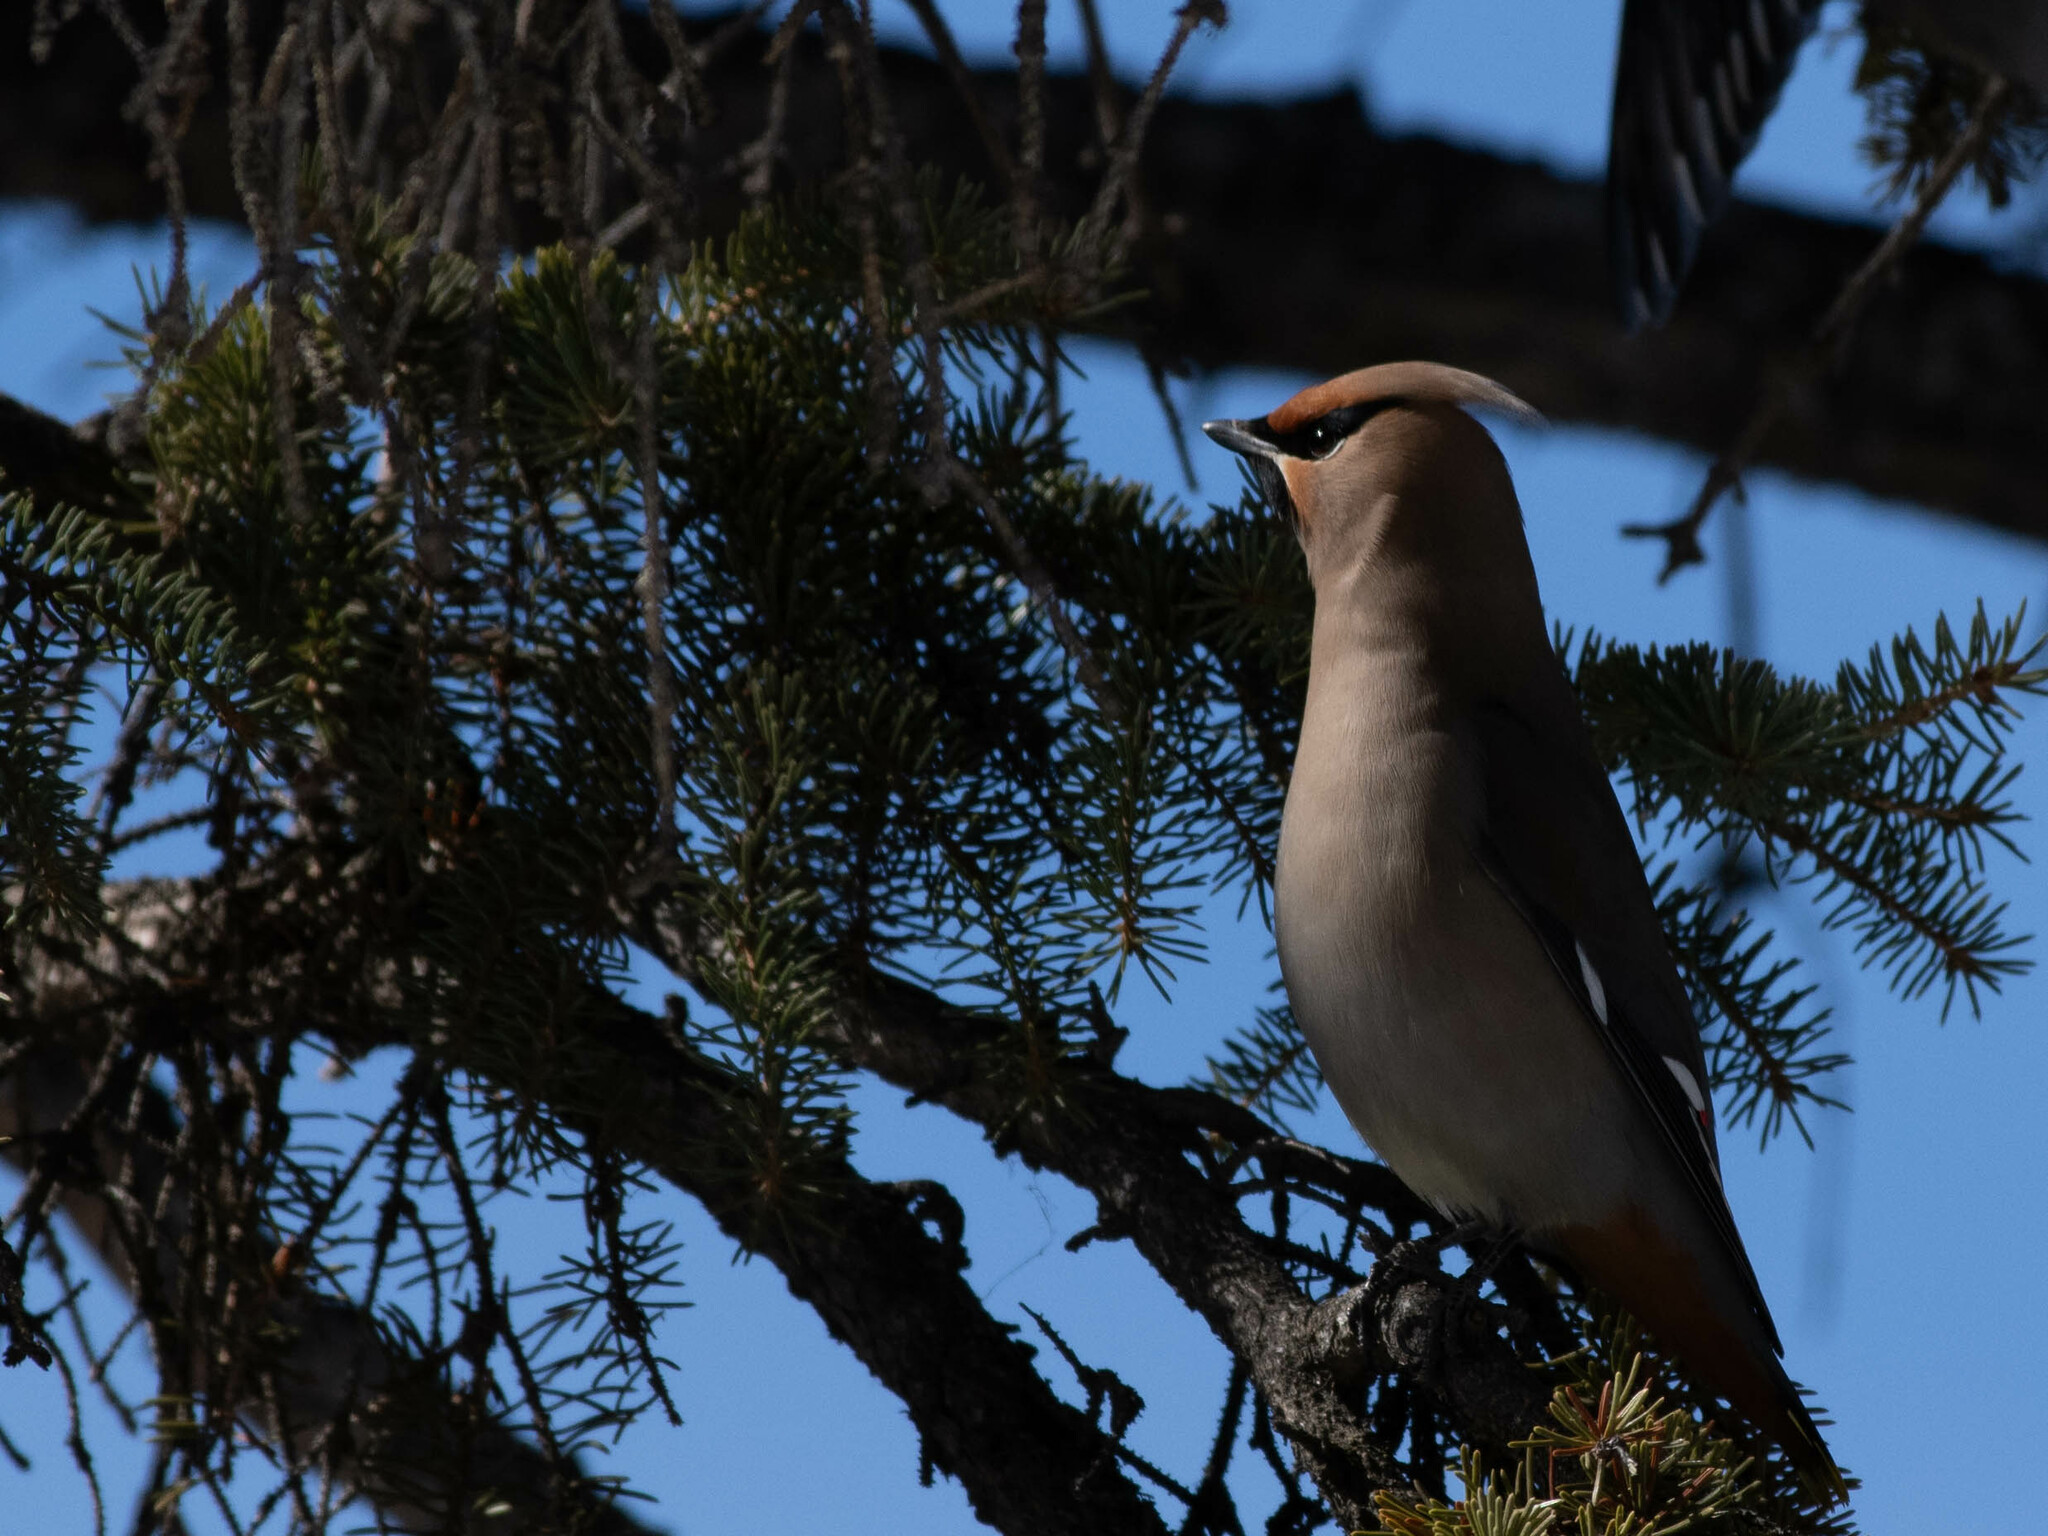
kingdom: Animalia
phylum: Chordata
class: Aves
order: Passeriformes
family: Bombycillidae
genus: Bombycilla
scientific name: Bombycilla garrulus
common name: Bohemian waxwing
